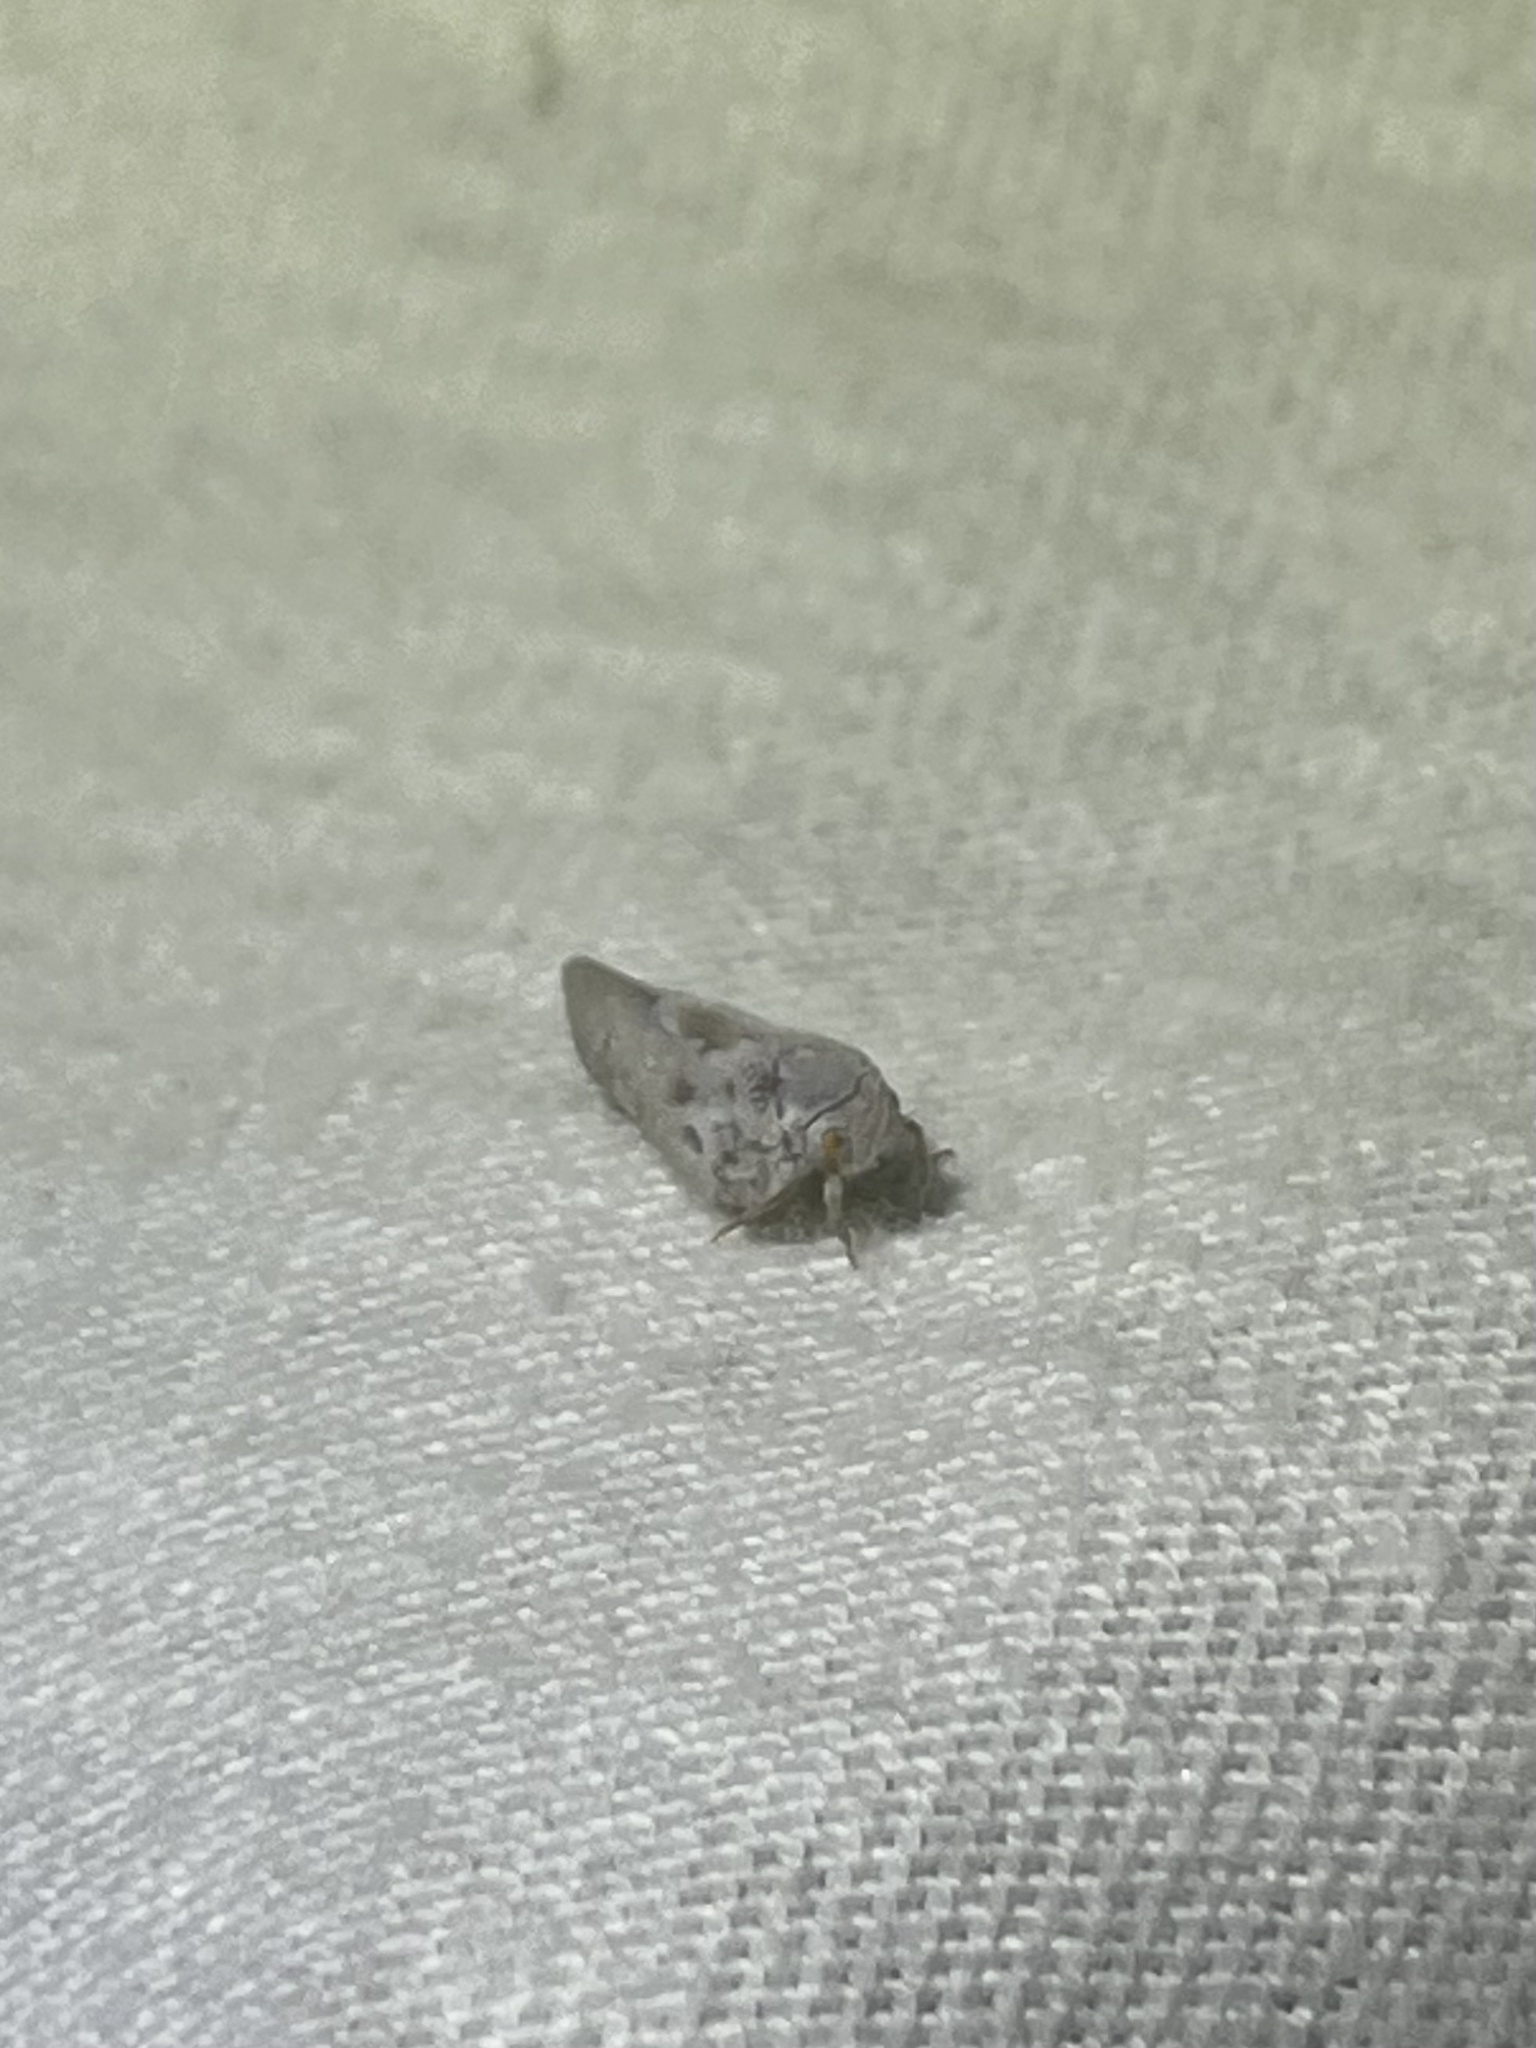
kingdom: Animalia
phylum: Arthropoda
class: Insecta
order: Hemiptera
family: Flatidae
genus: Metcalfa
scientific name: Metcalfa pruinosa
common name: Citrus flatid planthopper
